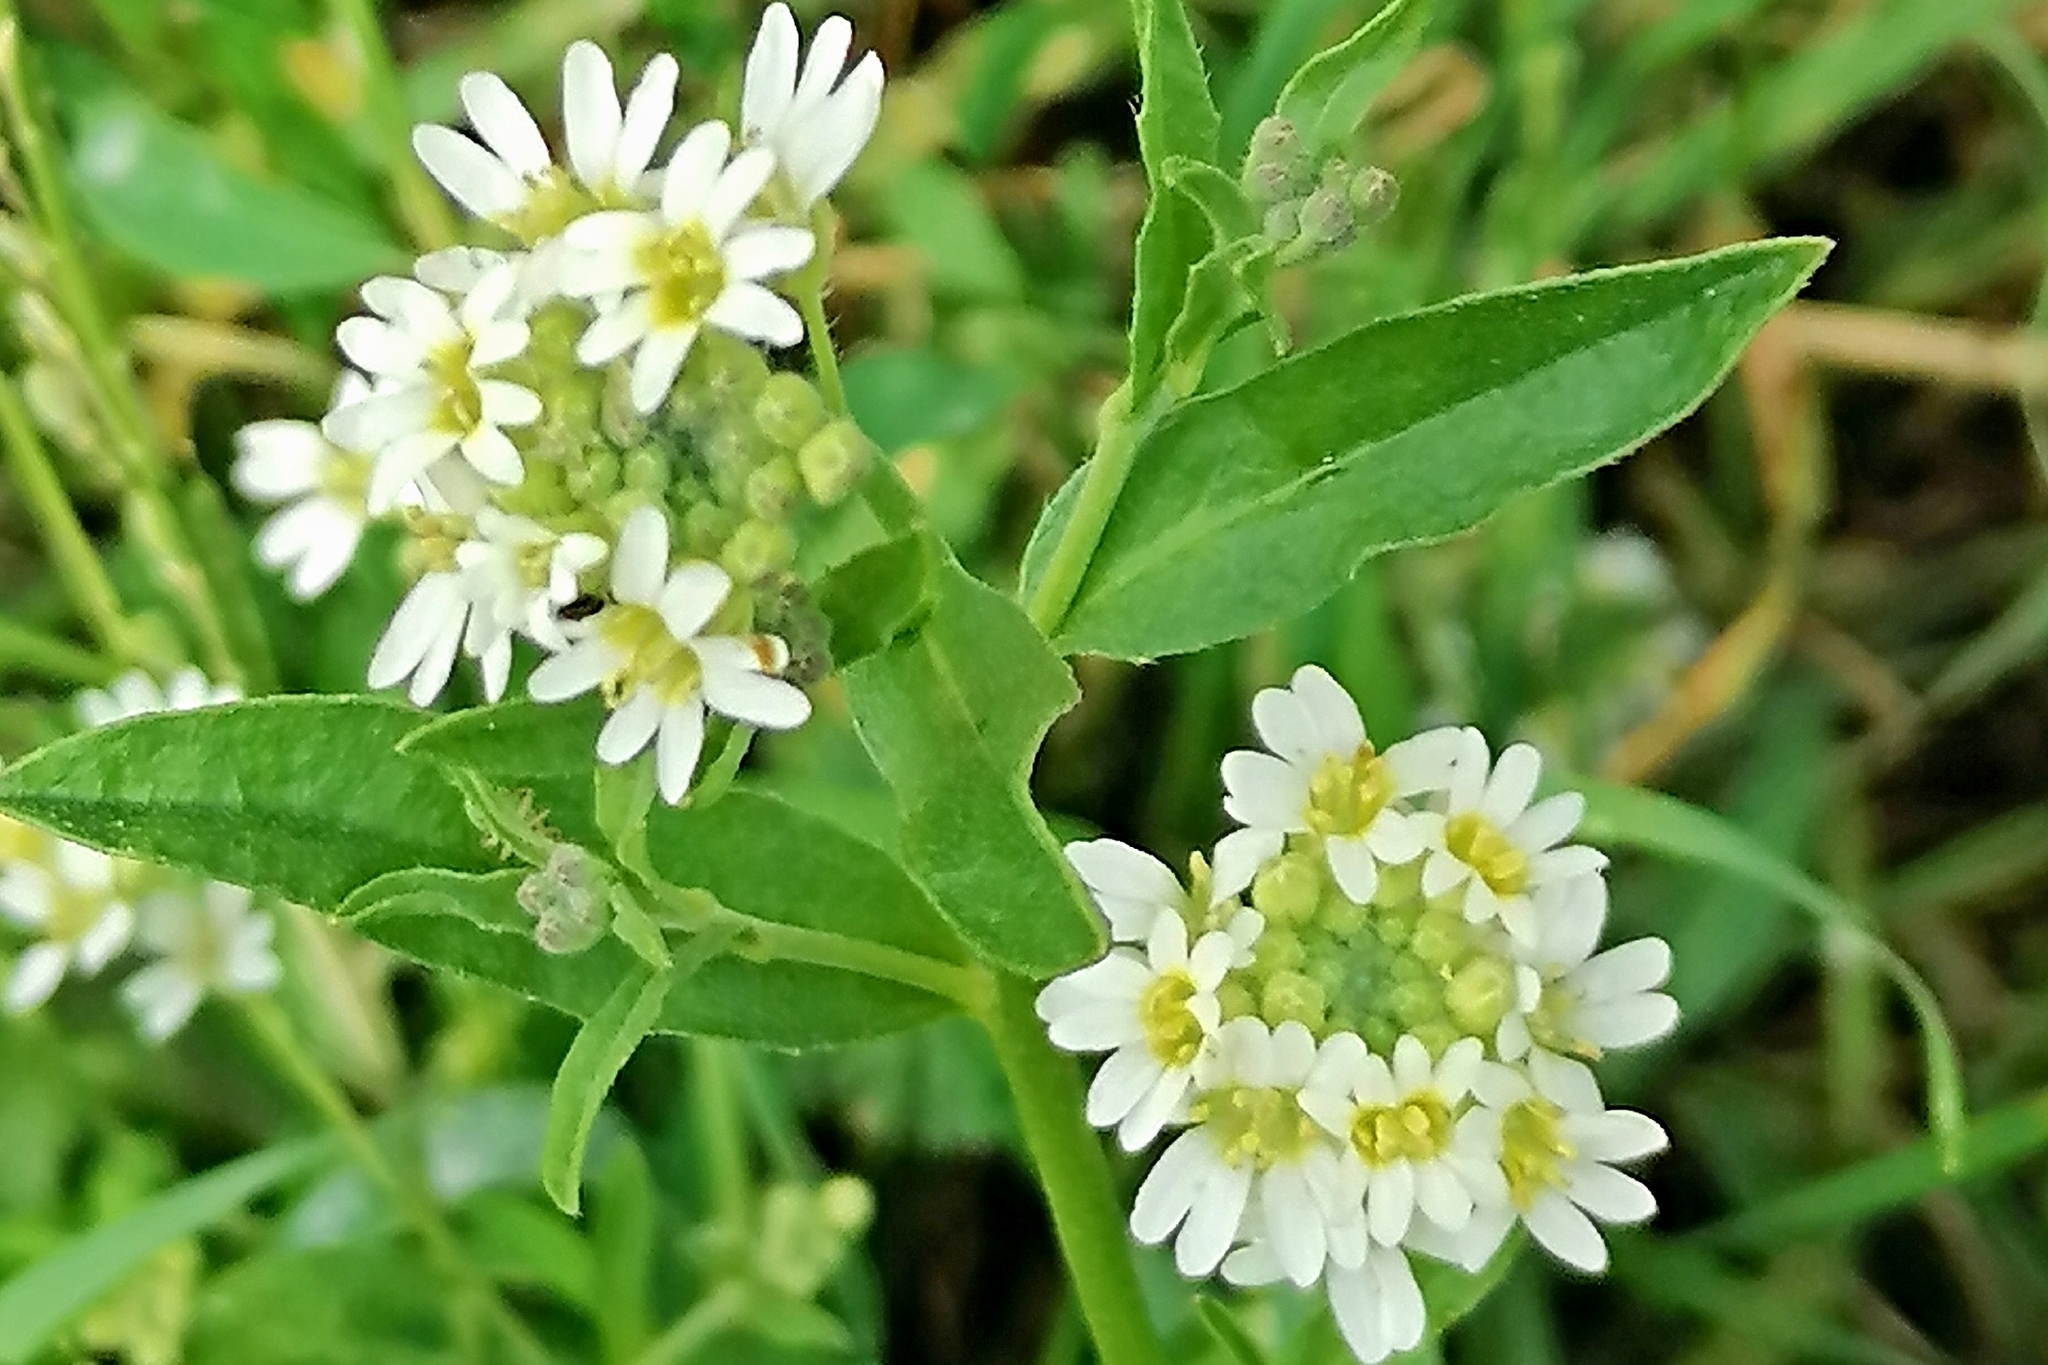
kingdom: Plantae
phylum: Tracheophyta
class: Magnoliopsida
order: Brassicales
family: Brassicaceae
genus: Berteroa
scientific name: Berteroa incana
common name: Hoary alison
